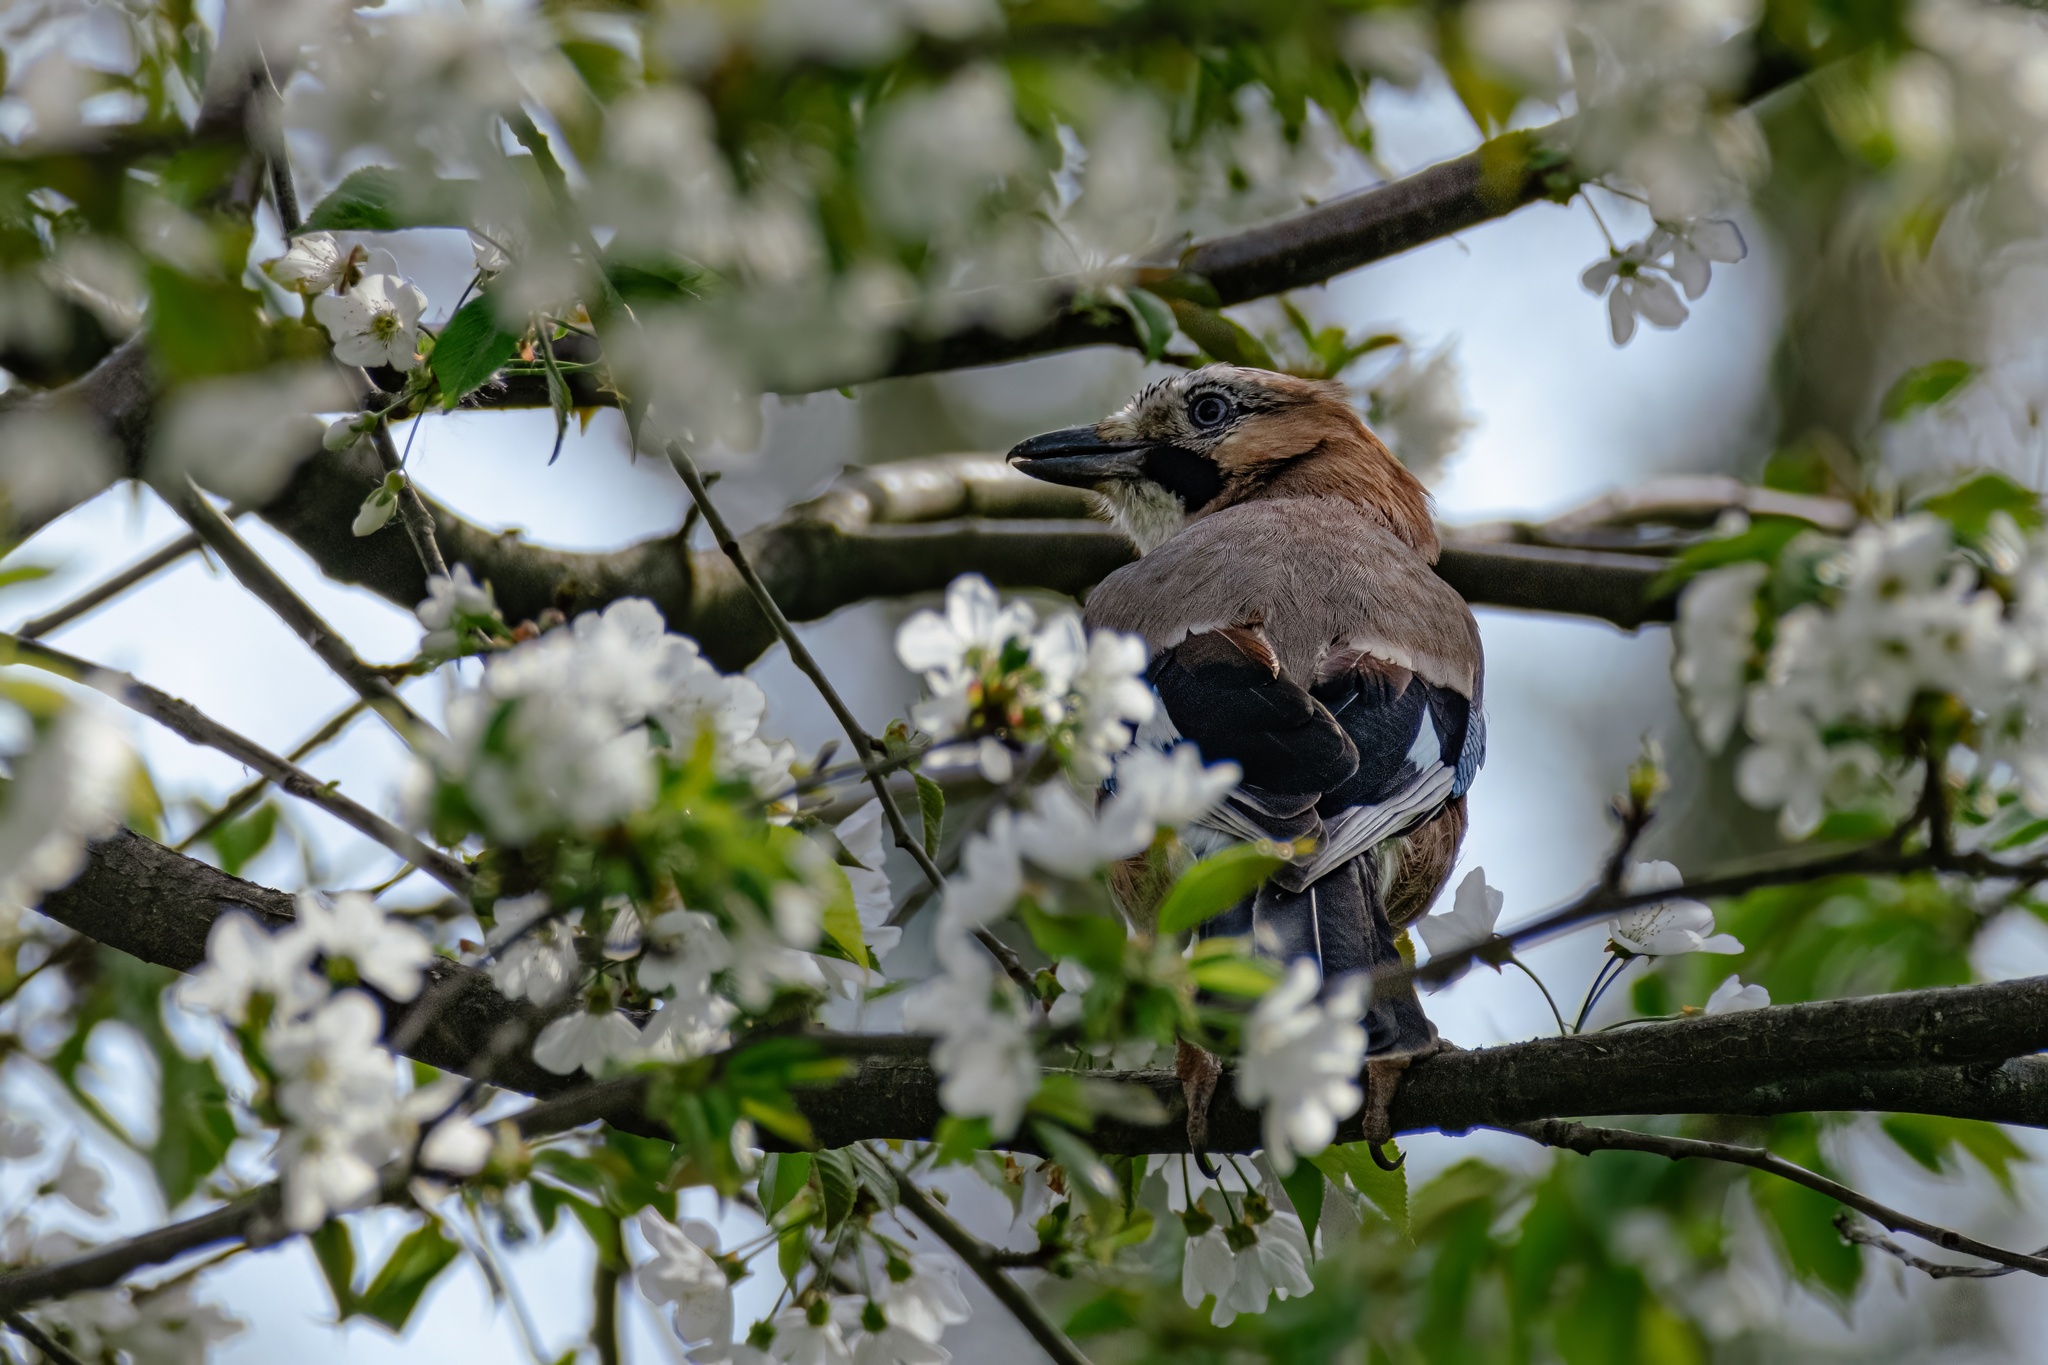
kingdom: Animalia
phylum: Chordata
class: Aves
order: Passeriformes
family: Corvidae
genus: Garrulus
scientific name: Garrulus glandarius
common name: Eurasian jay
